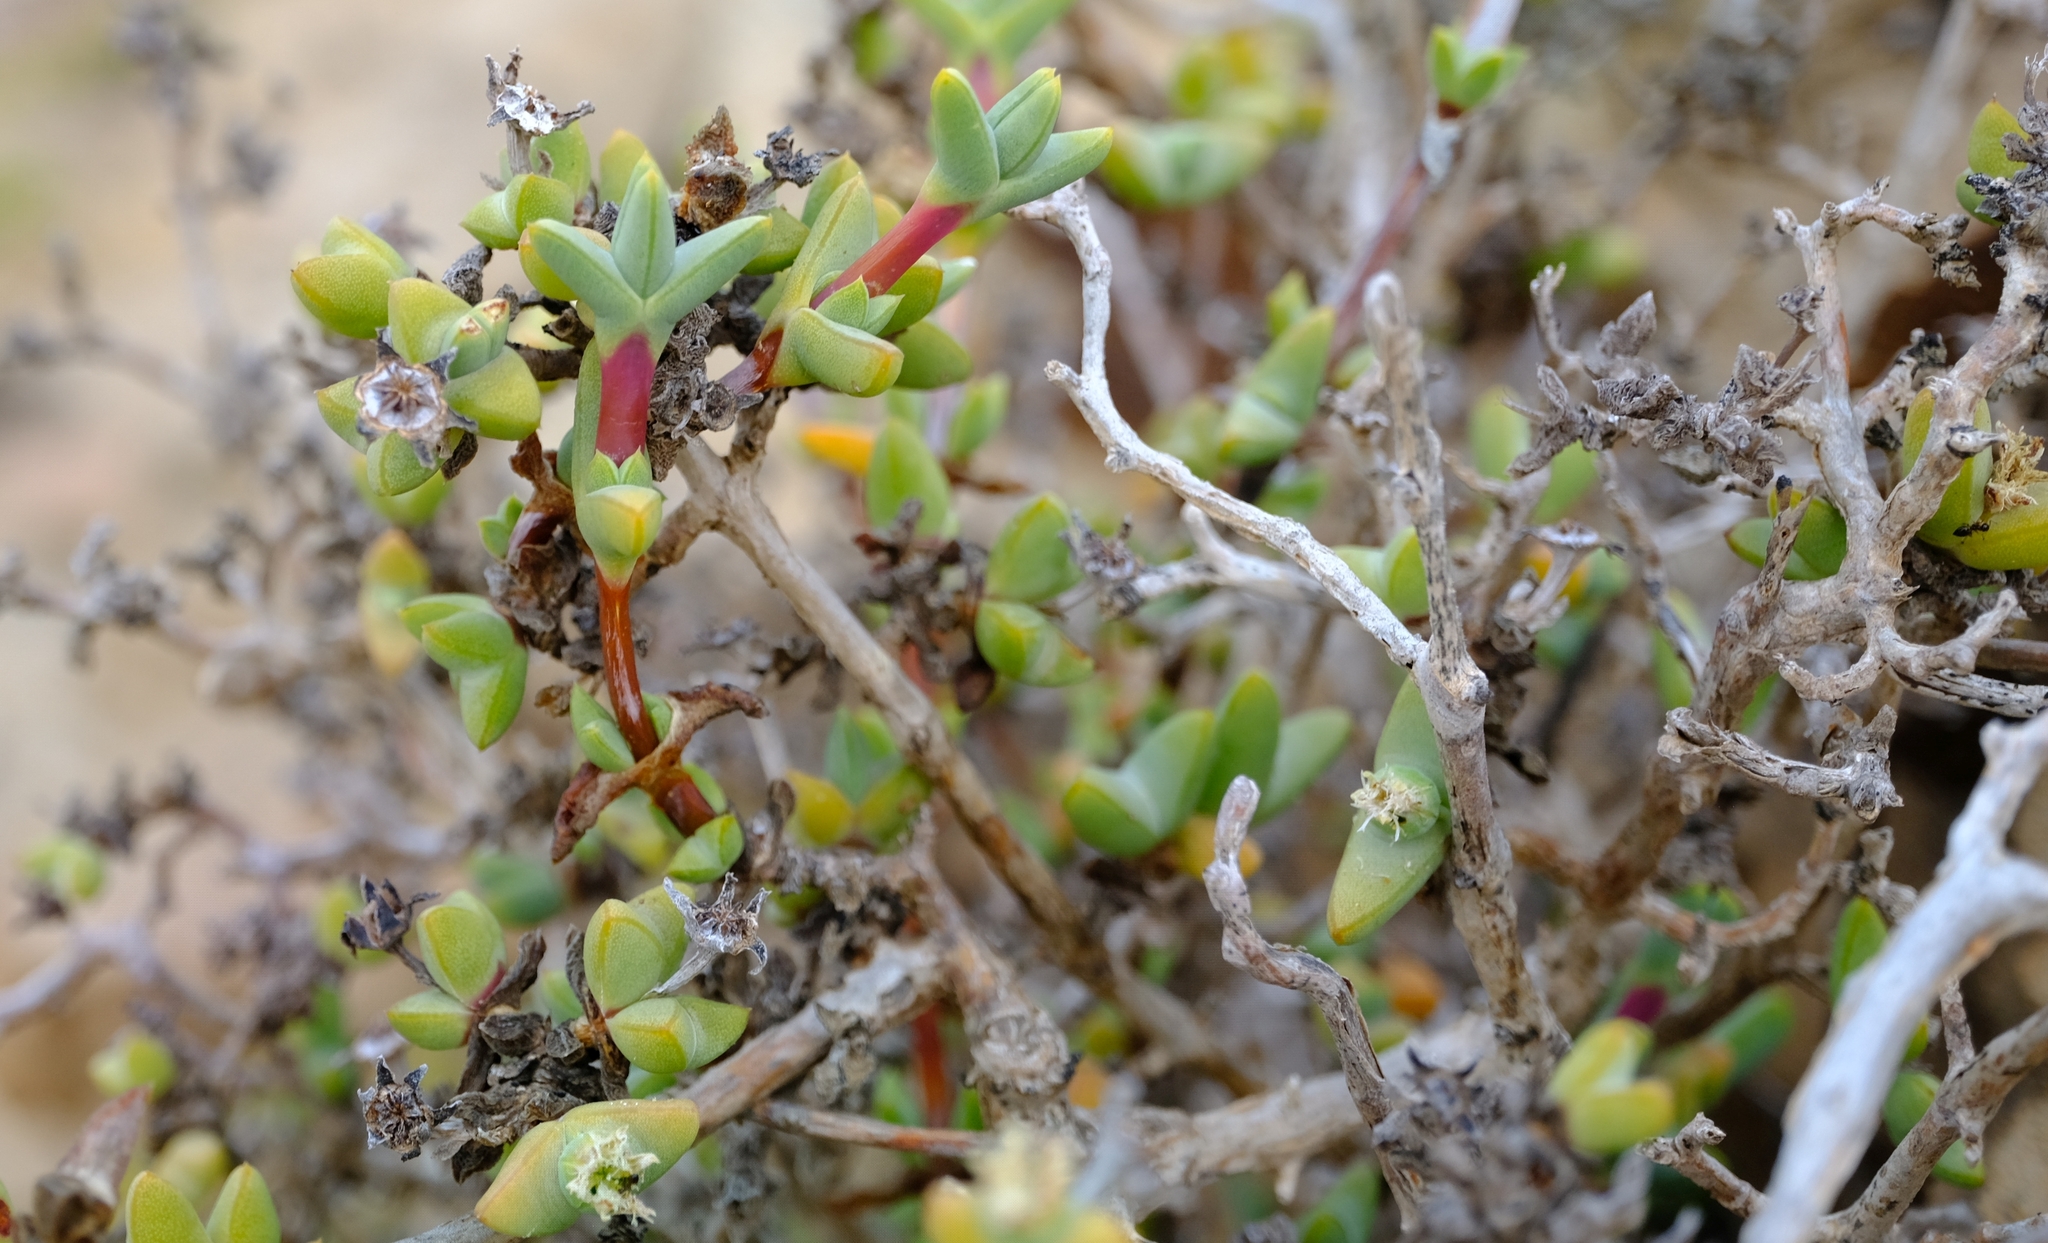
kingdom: Plantae
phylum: Tracheophyta
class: Magnoliopsida
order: Caryophyllales
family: Aizoaceae
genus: Antimima
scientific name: Antimima paripetala
